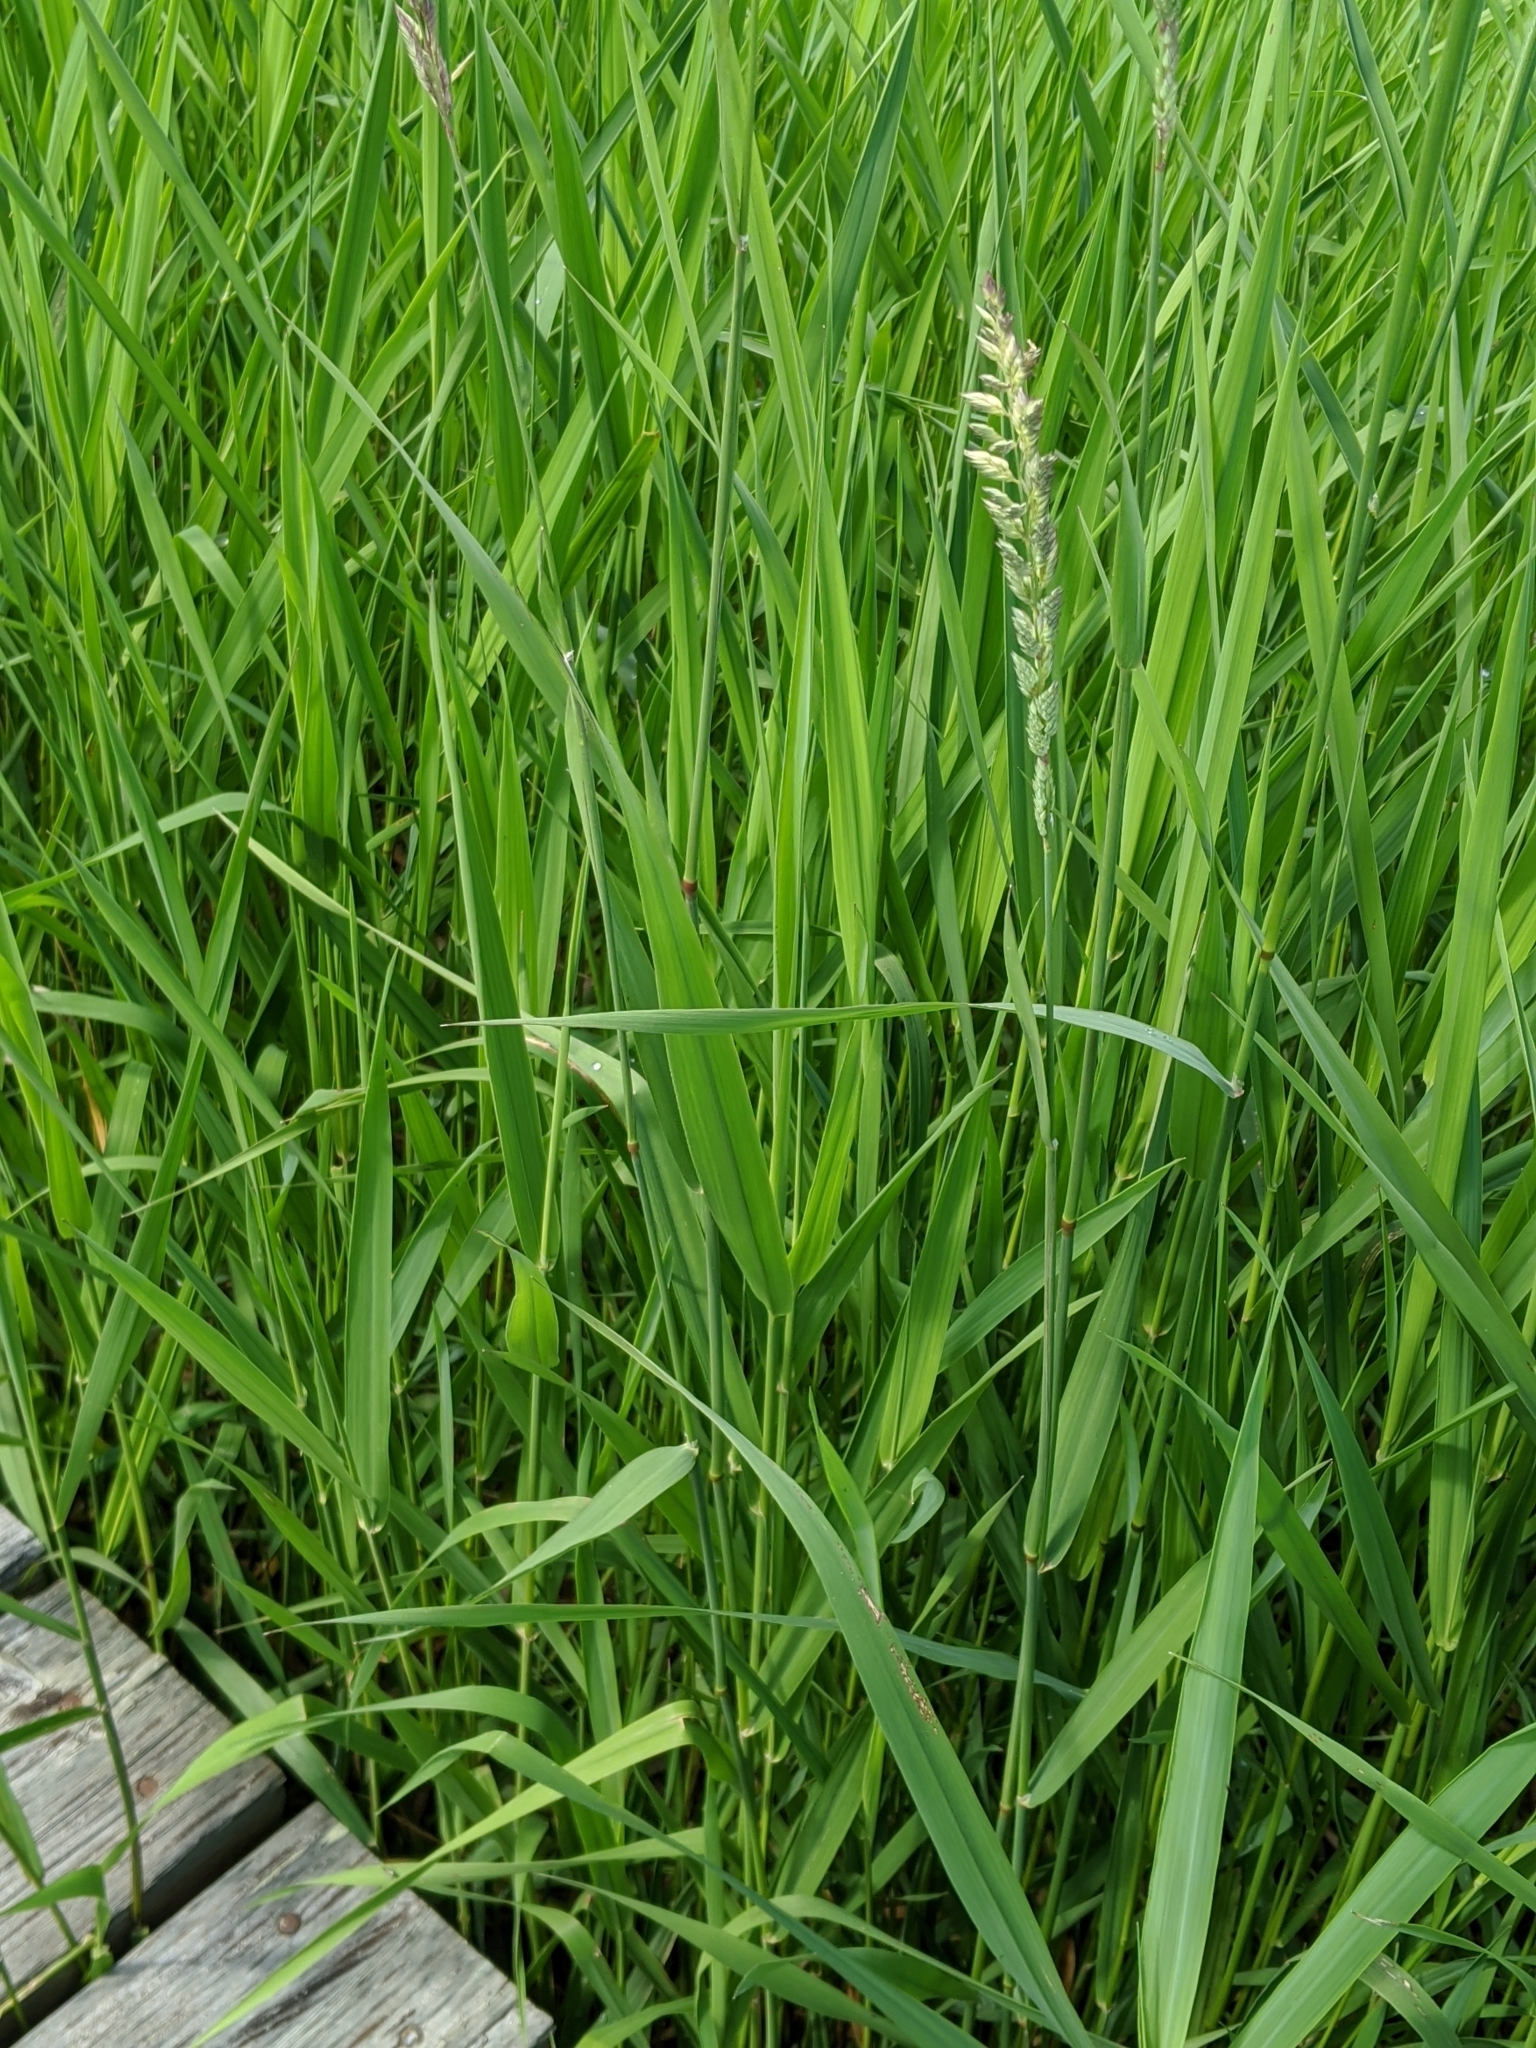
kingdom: Plantae
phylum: Tracheophyta
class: Liliopsida
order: Poales
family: Poaceae
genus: Phalaris
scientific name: Phalaris arundinacea
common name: Reed canary-grass
